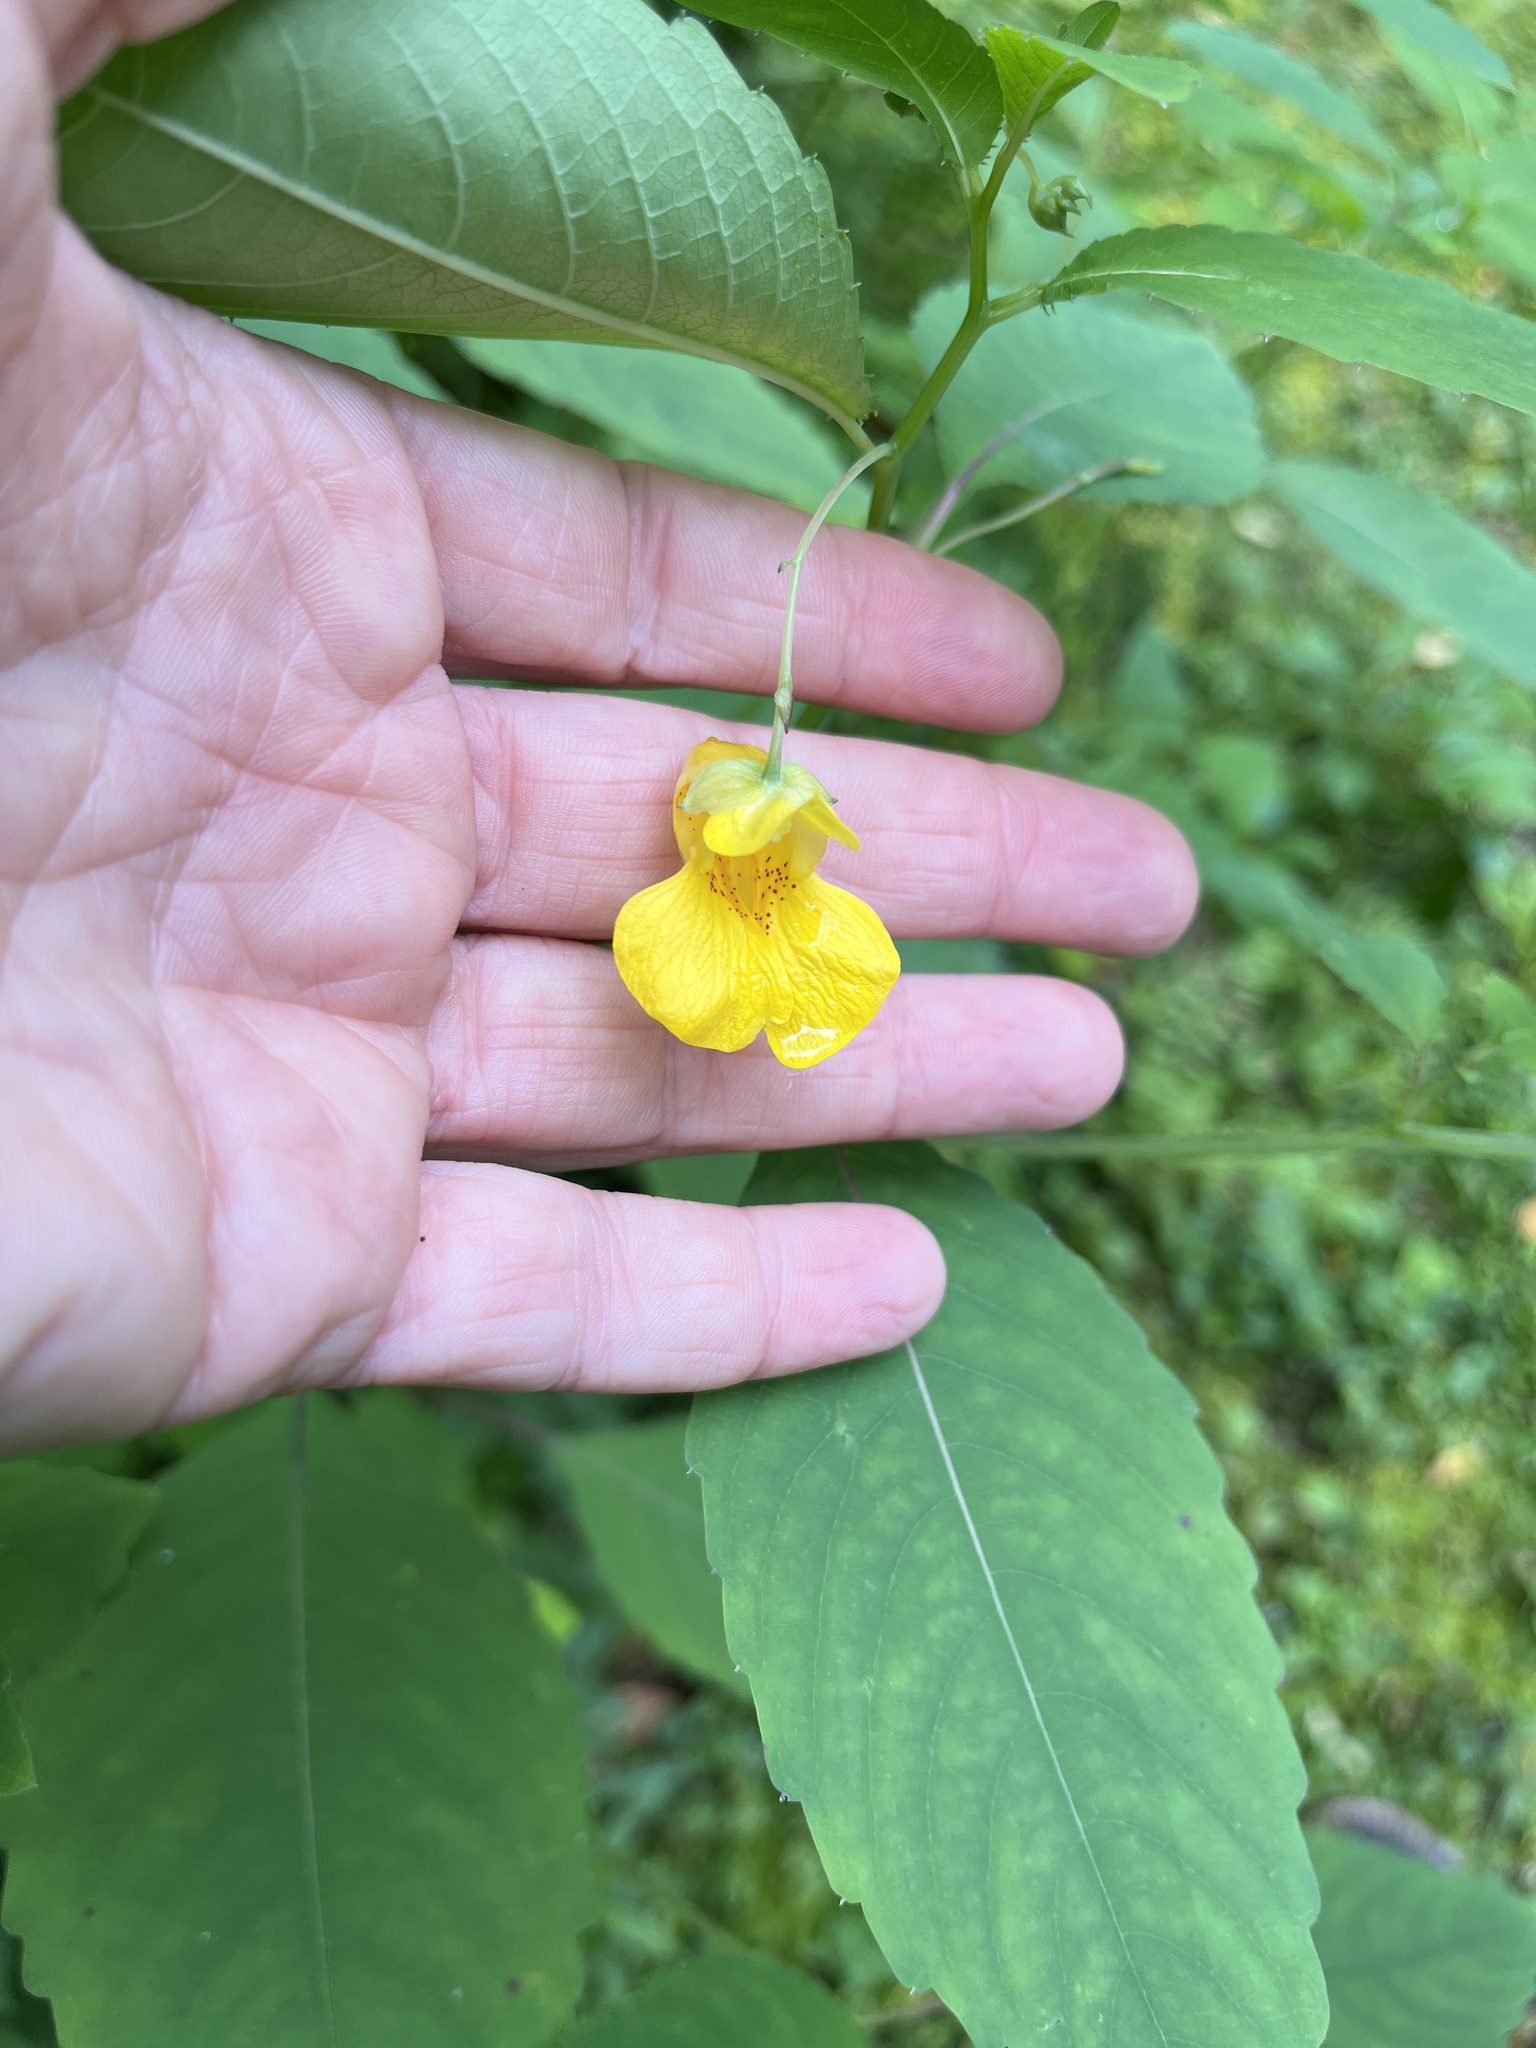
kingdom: Plantae
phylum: Tracheophyta
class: Magnoliopsida
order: Ericales
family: Balsaminaceae
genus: Impatiens
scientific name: Impatiens pallida
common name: Pale snapweed
